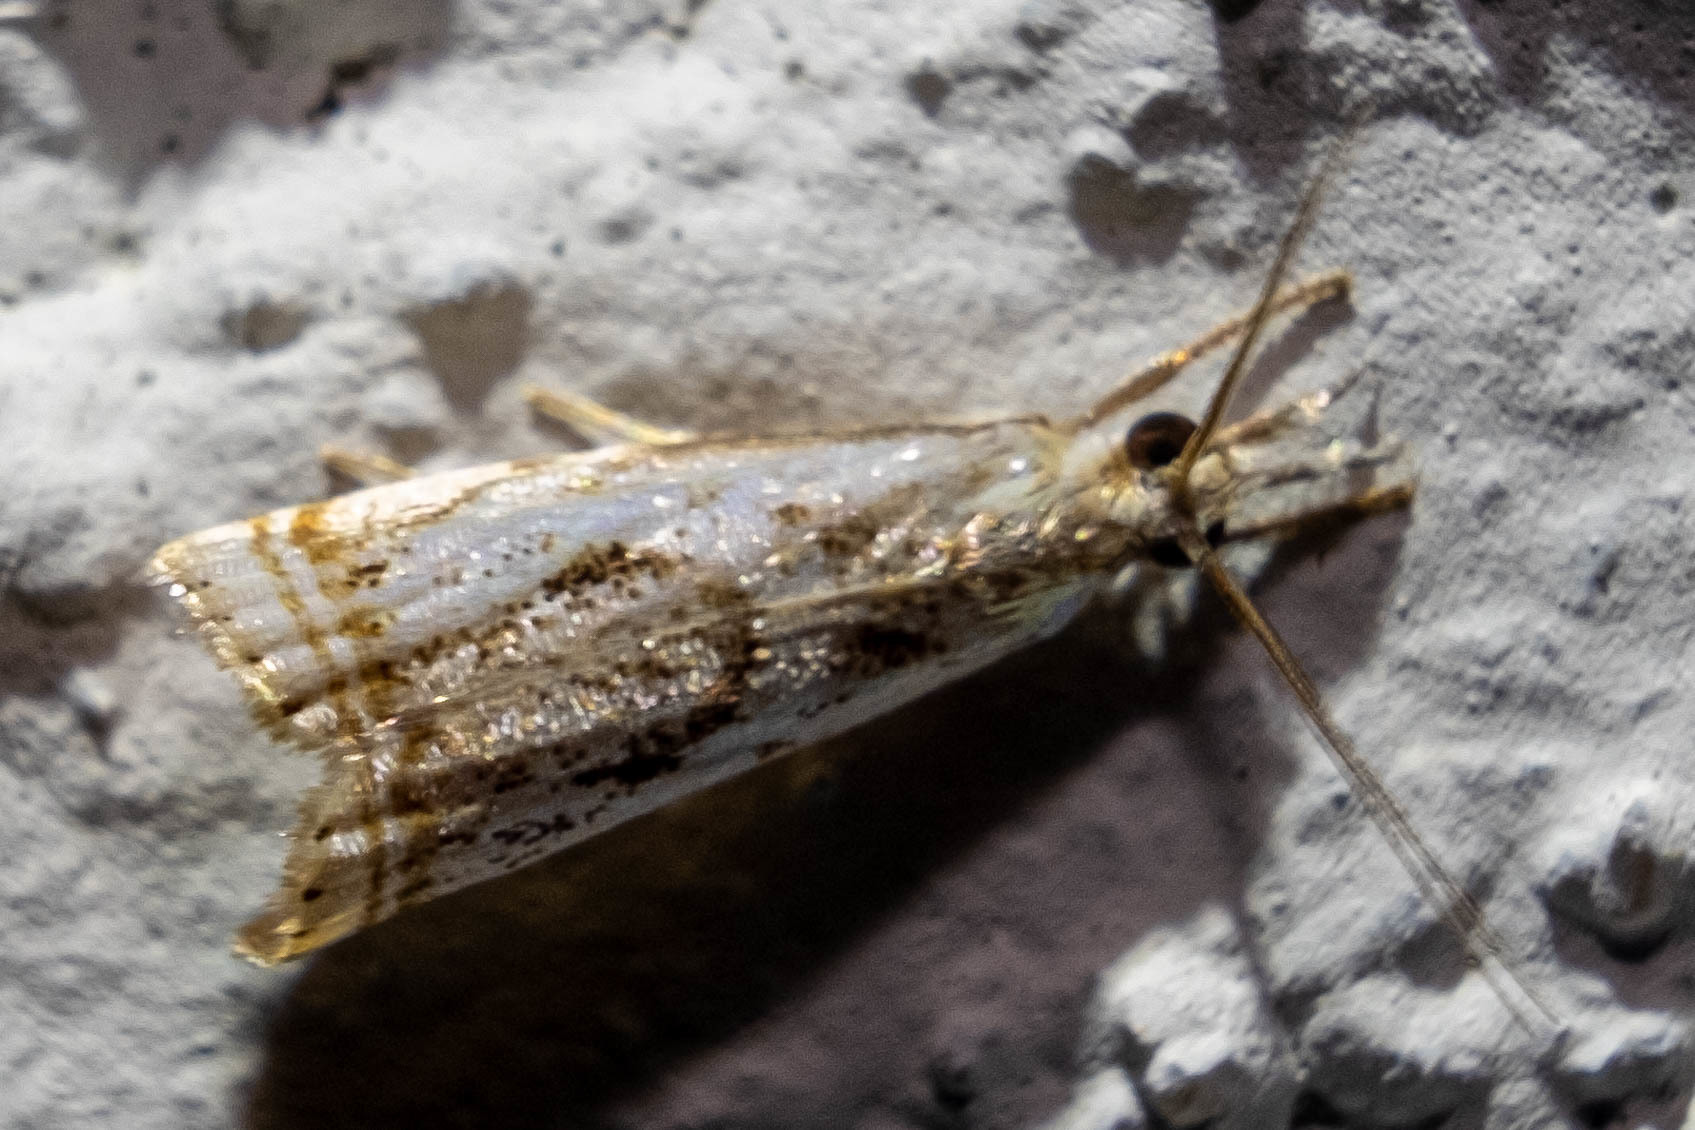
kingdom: Animalia
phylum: Arthropoda
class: Insecta
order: Lepidoptera
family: Crambidae
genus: Microcrambus
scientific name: Microcrambus elegans
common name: Elegant grass-veneer
